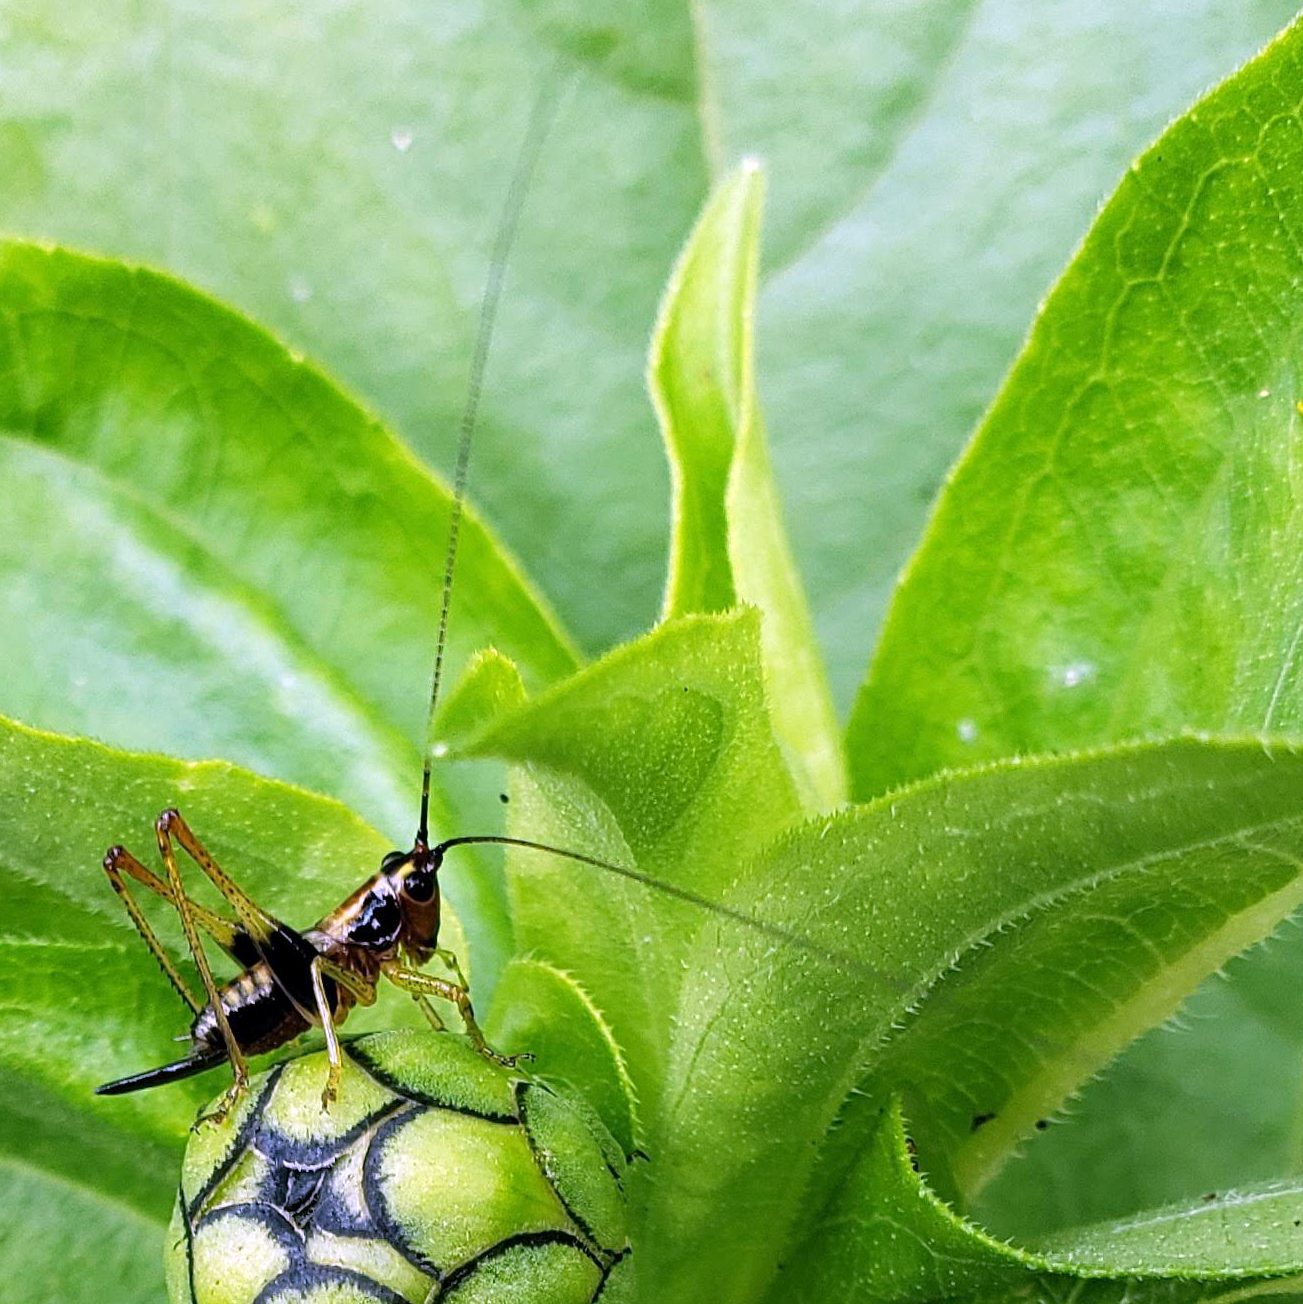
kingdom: Animalia
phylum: Arthropoda
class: Insecta
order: Orthoptera
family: Tettigoniidae
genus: Conocephalus
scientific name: Conocephalus nigropleurum
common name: Black-sided meadow katydid
